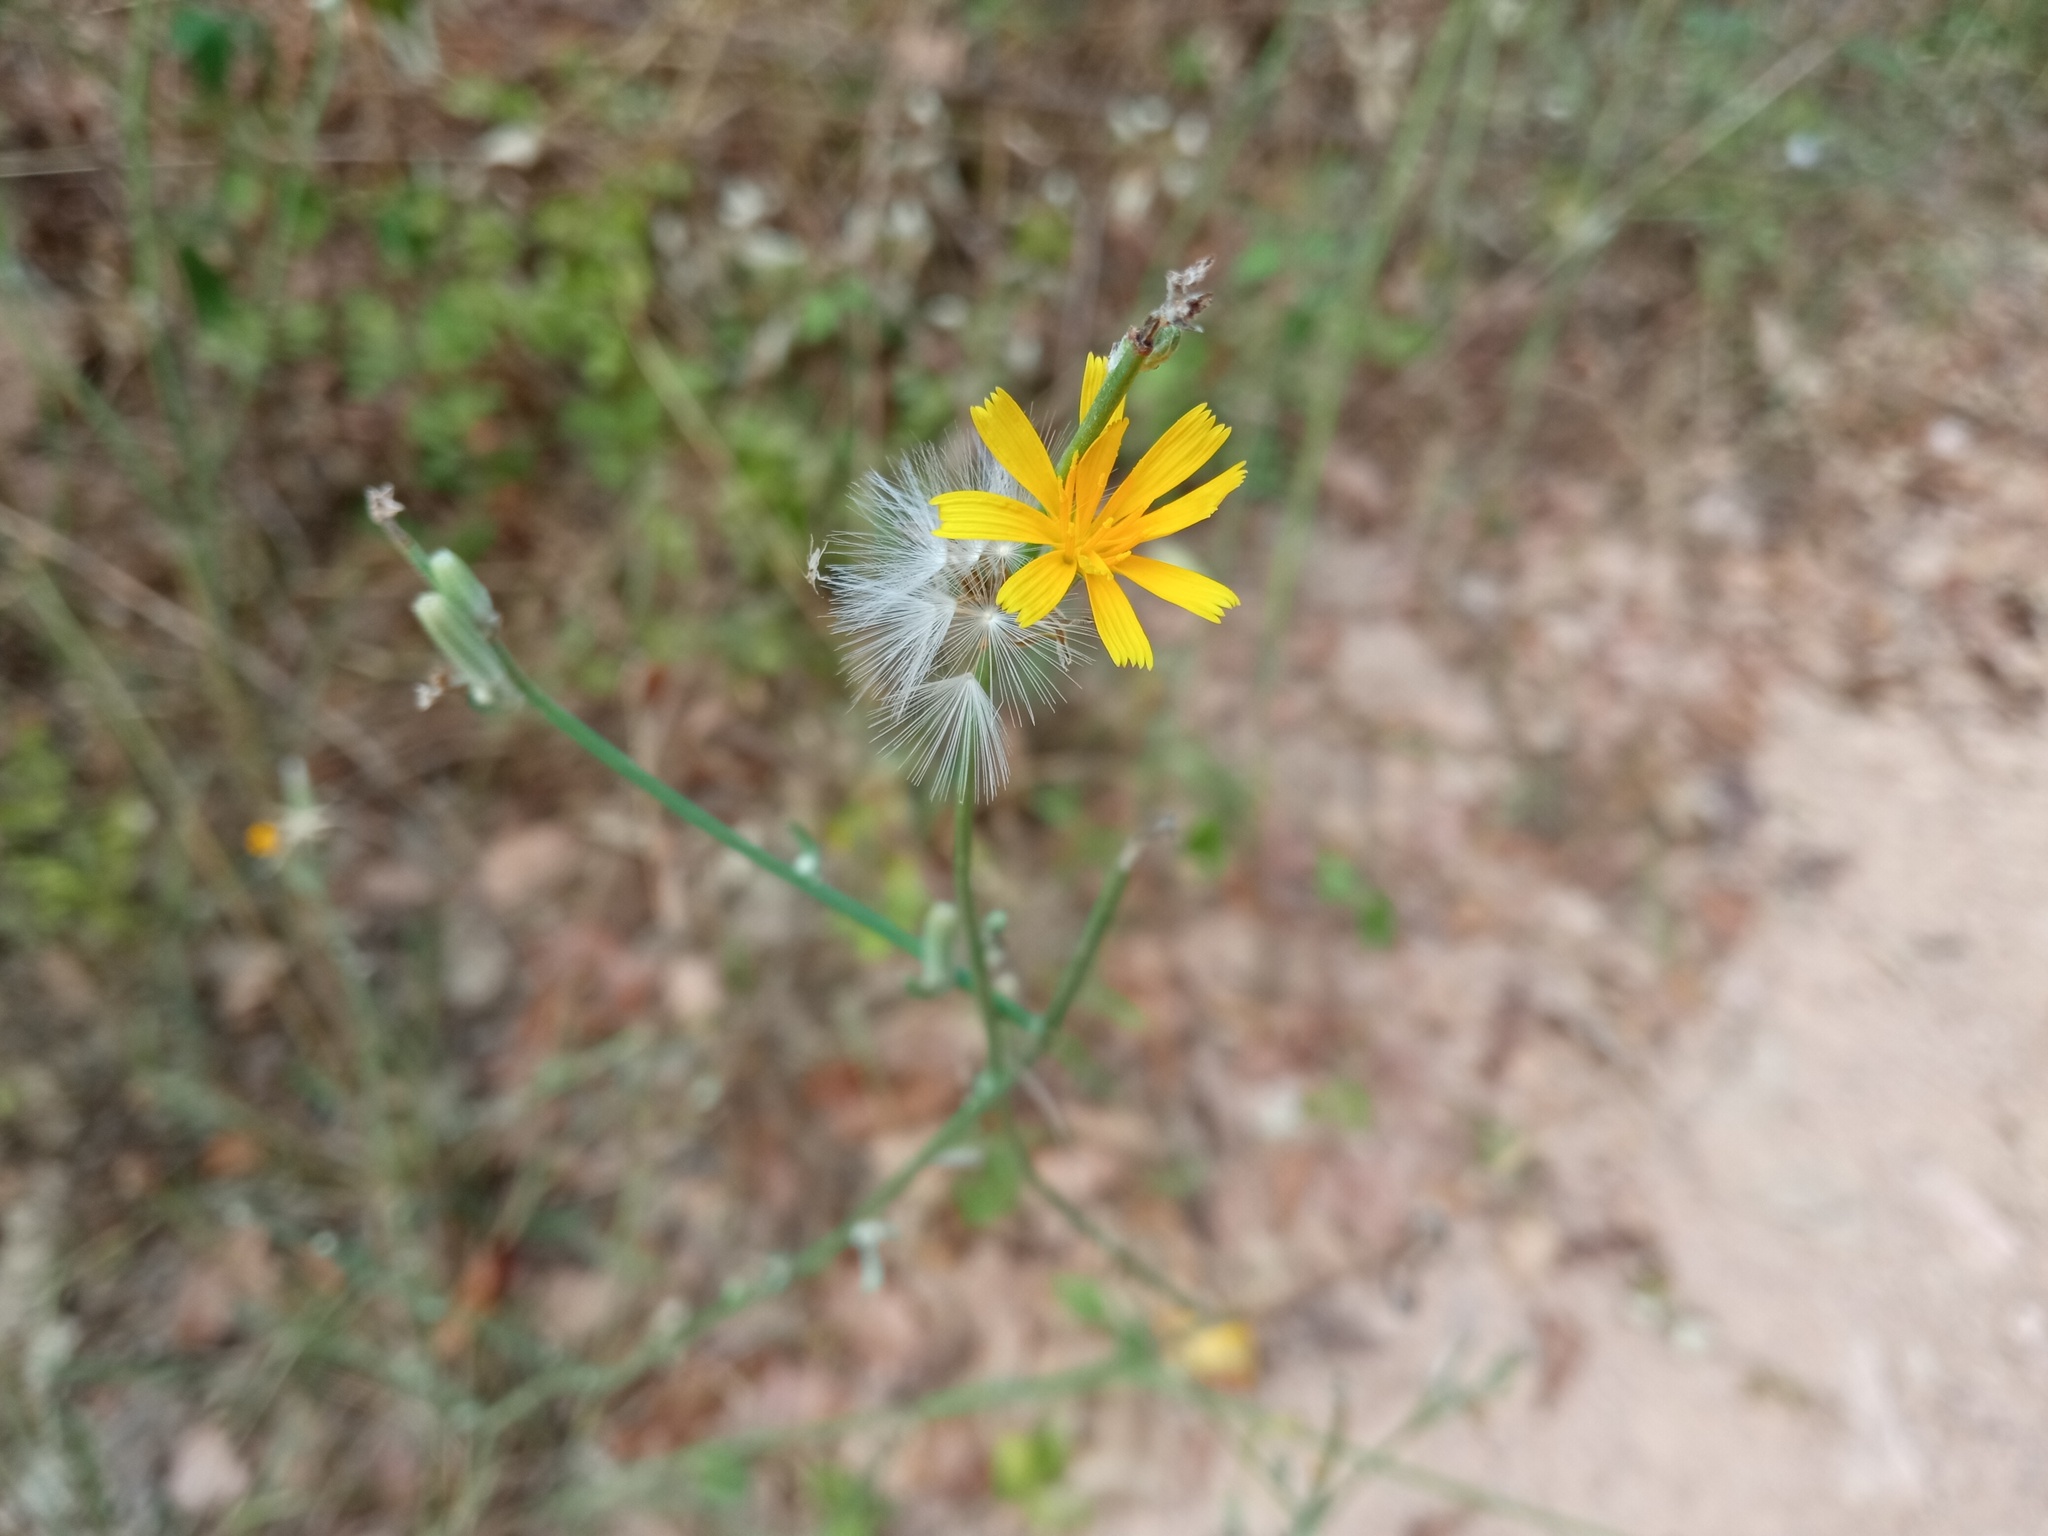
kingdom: Plantae
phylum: Tracheophyta
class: Magnoliopsida
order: Asterales
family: Asteraceae
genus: Chondrilla
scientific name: Chondrilla juncea
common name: Skeleton weed
